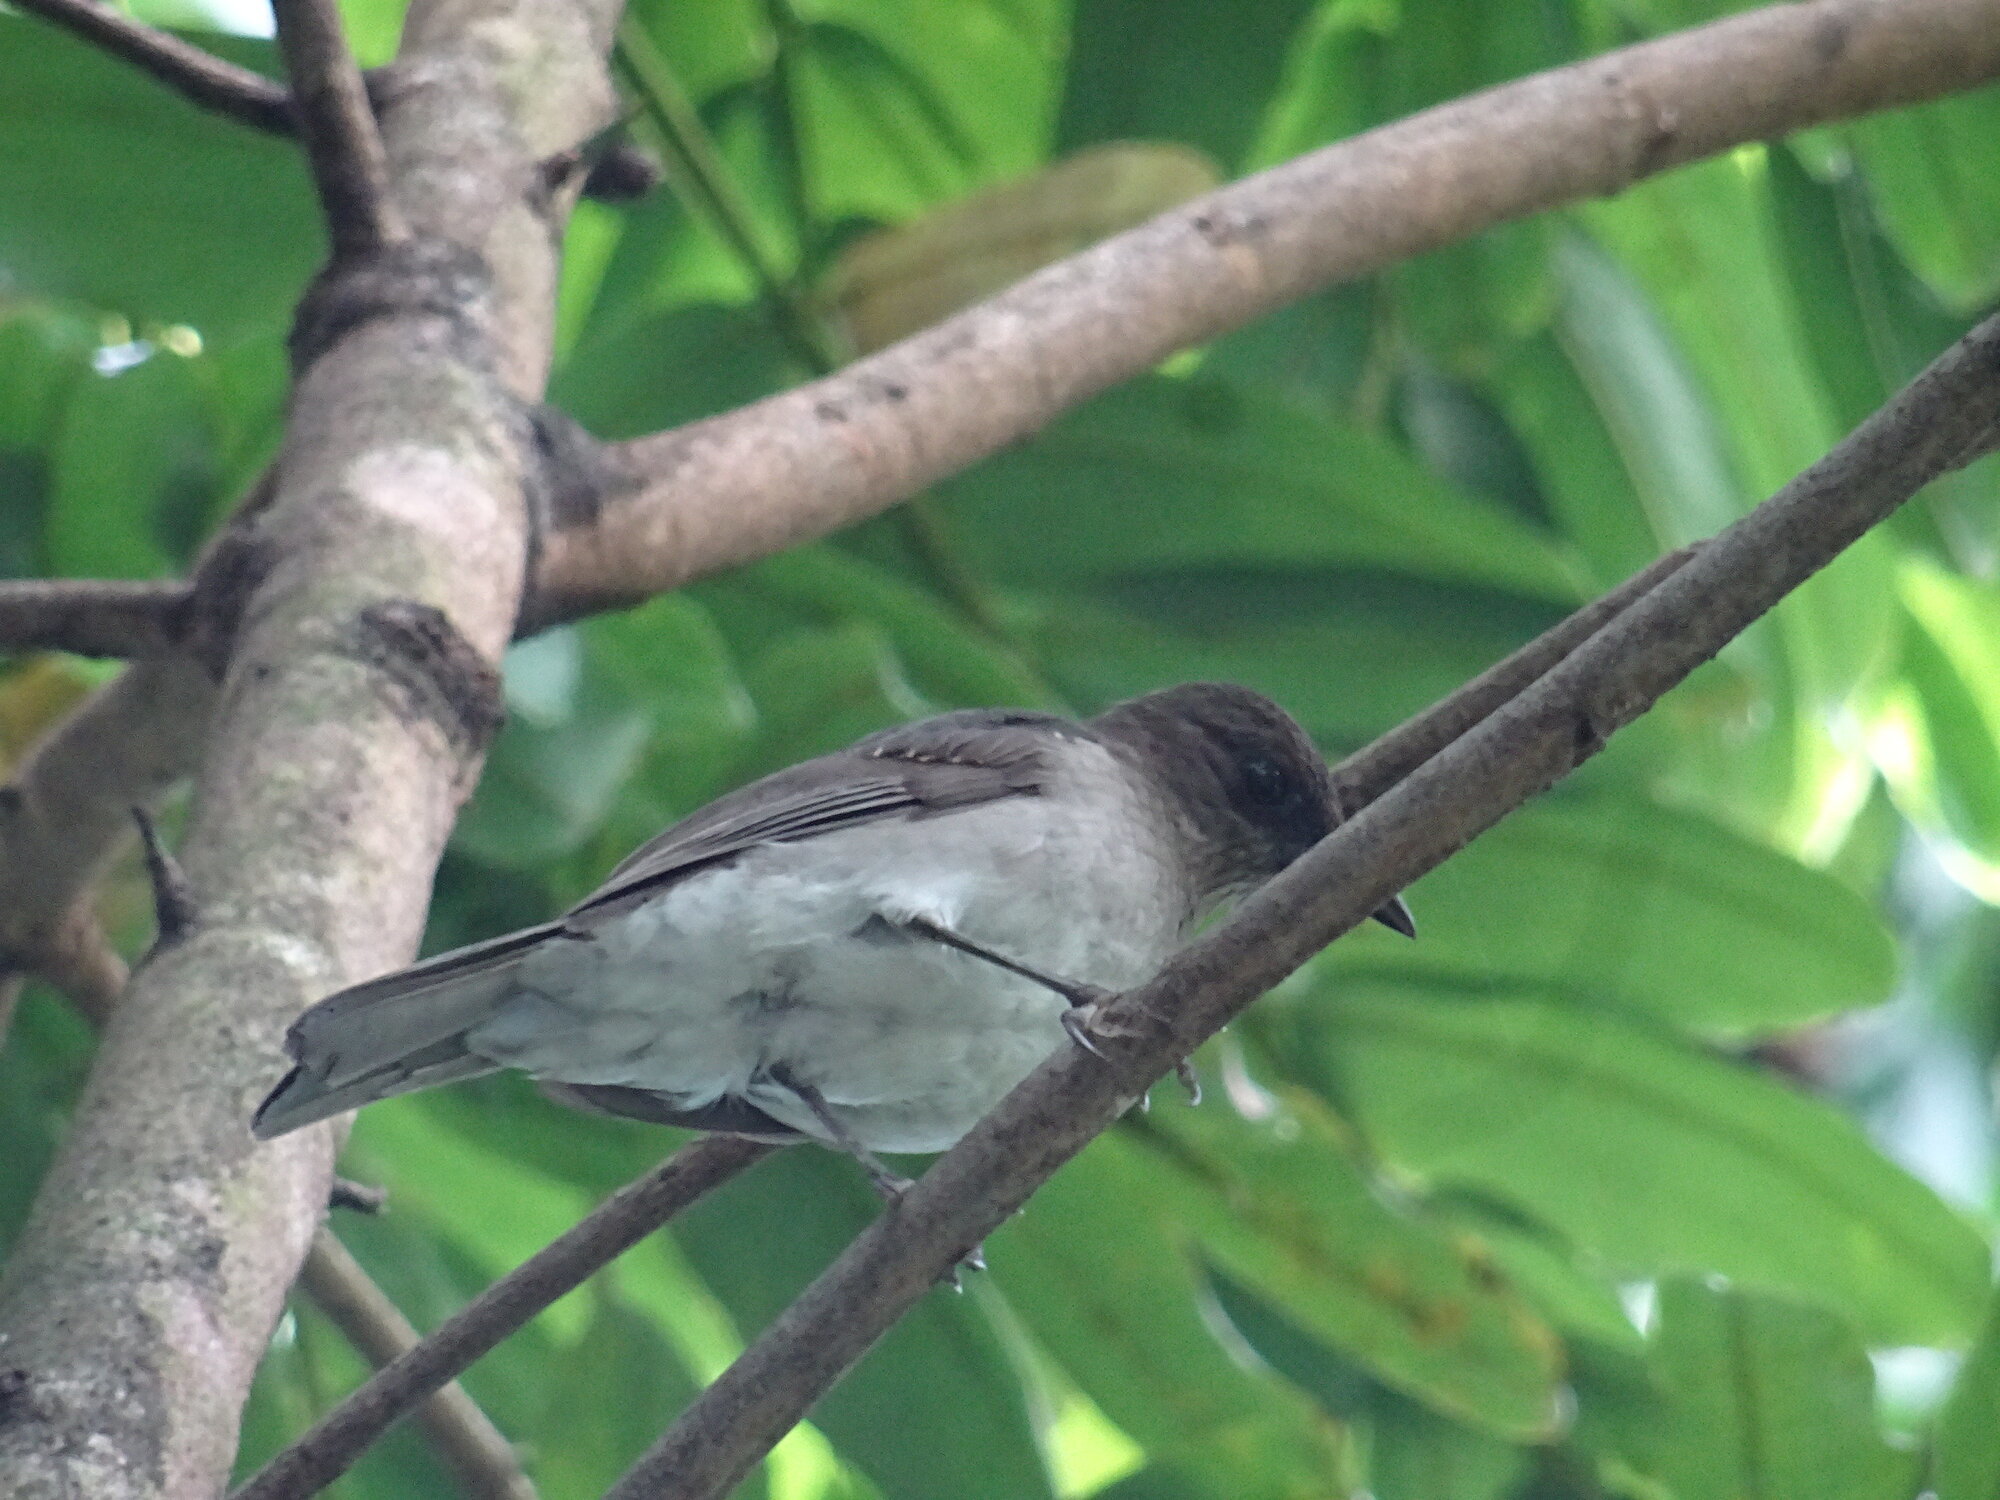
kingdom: Animalia
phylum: Chordata
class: Aves
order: Passeriformes
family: Turdidae
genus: Turdus
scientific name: Turdus ignobilis
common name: Black-billed thrush
